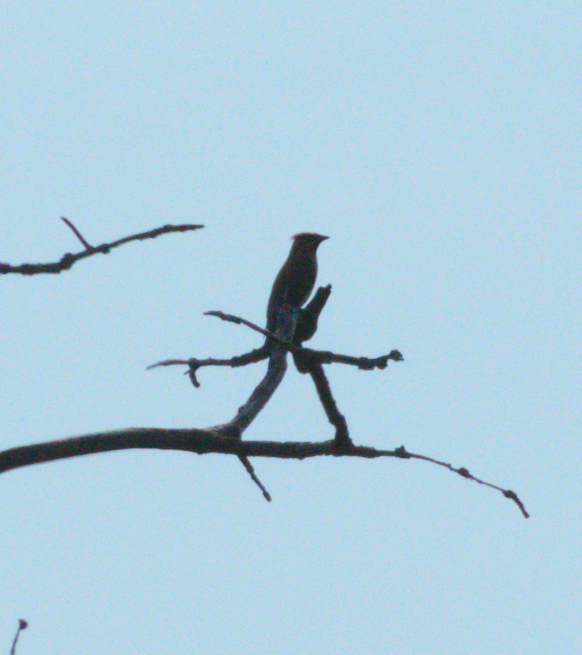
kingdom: Animalia
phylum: Chordata
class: Aves
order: Passeriformes
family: Bombycillidae
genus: Bombycilla
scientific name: Bombycilla cedrorum
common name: Cedar waxwing
